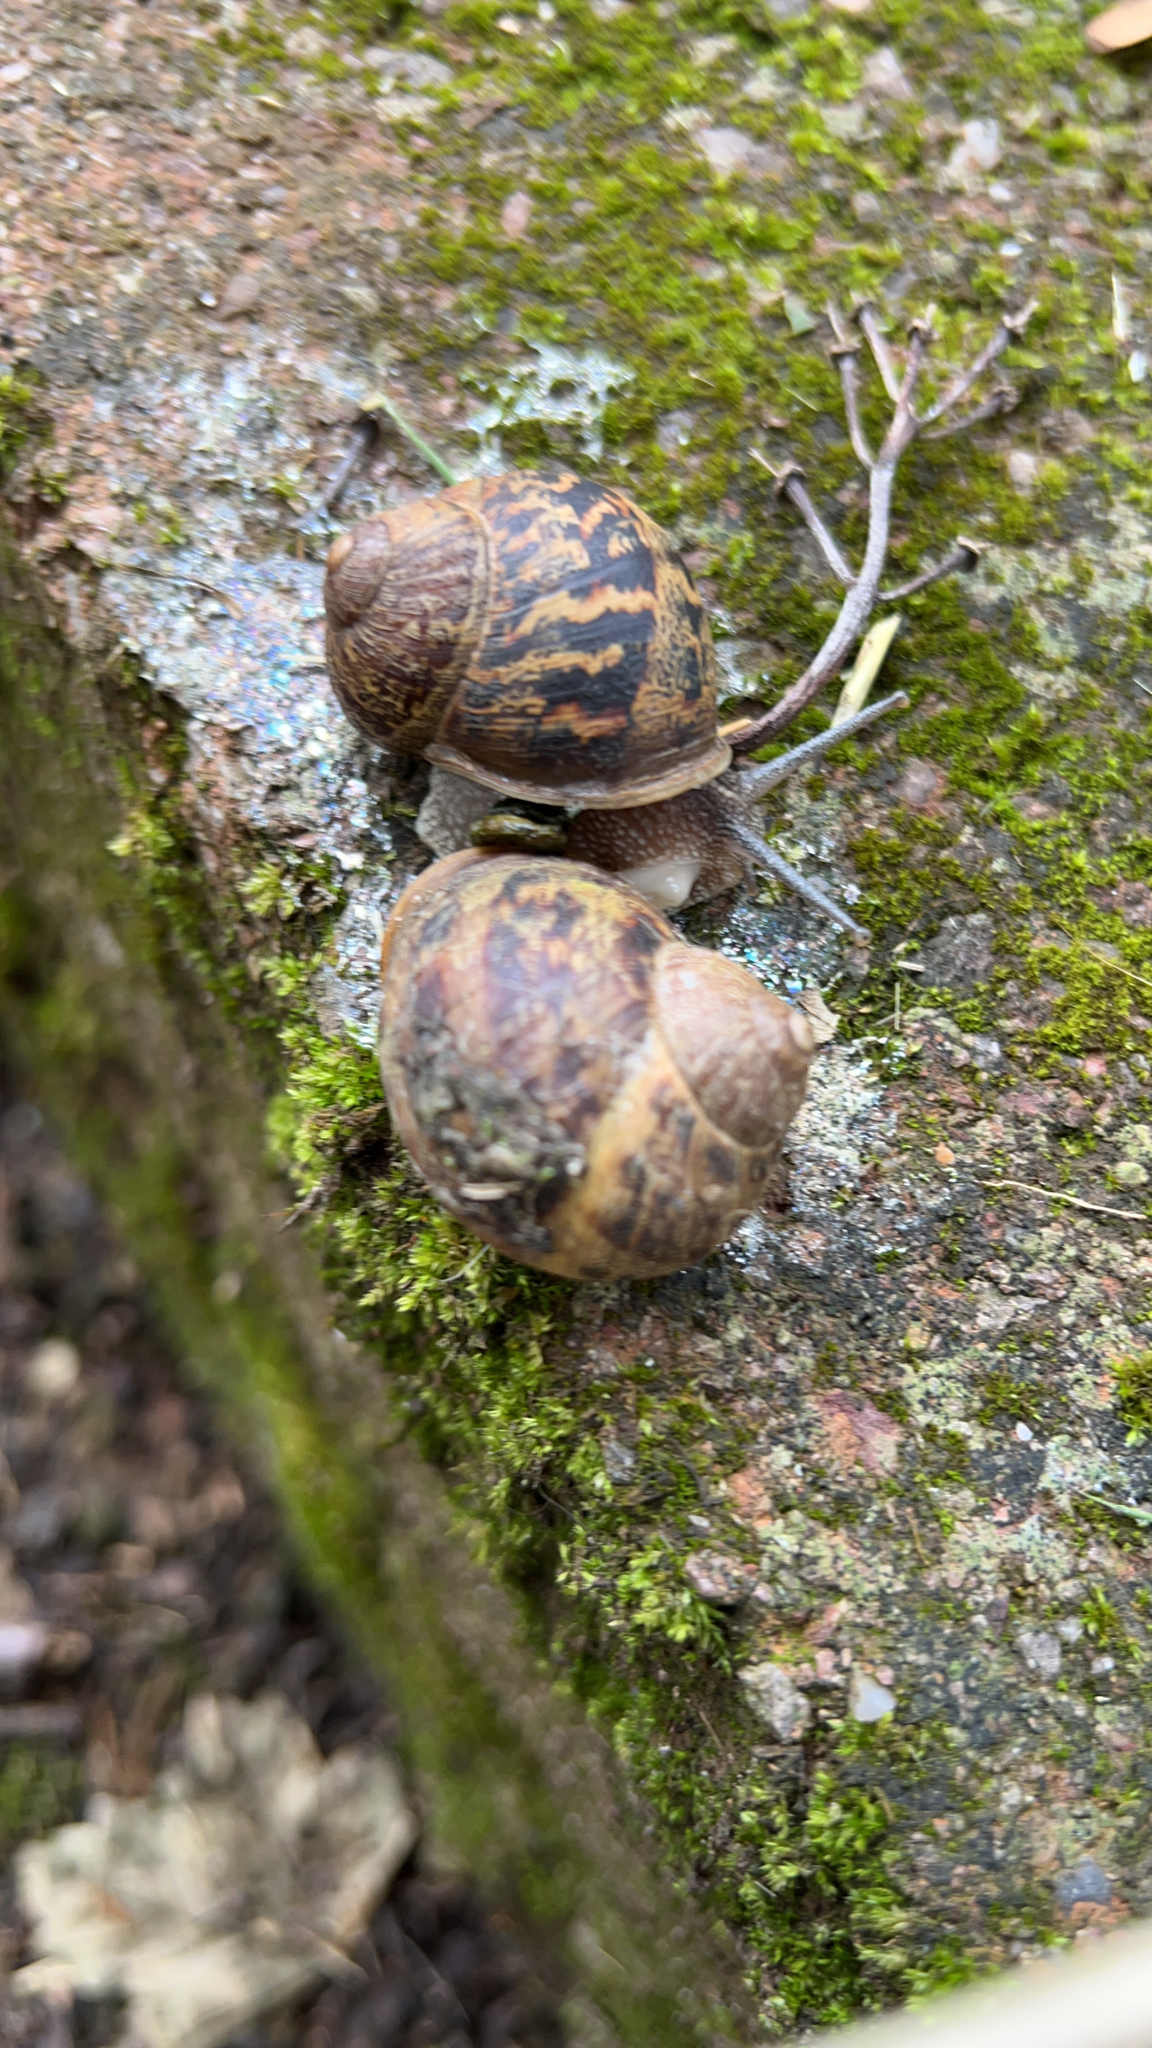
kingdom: Animalia
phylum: Mollusca
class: Gastropoda
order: Stylommatophora
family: Helicidae
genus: Cornu
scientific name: Cornu aspersum
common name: Brown garden snail
